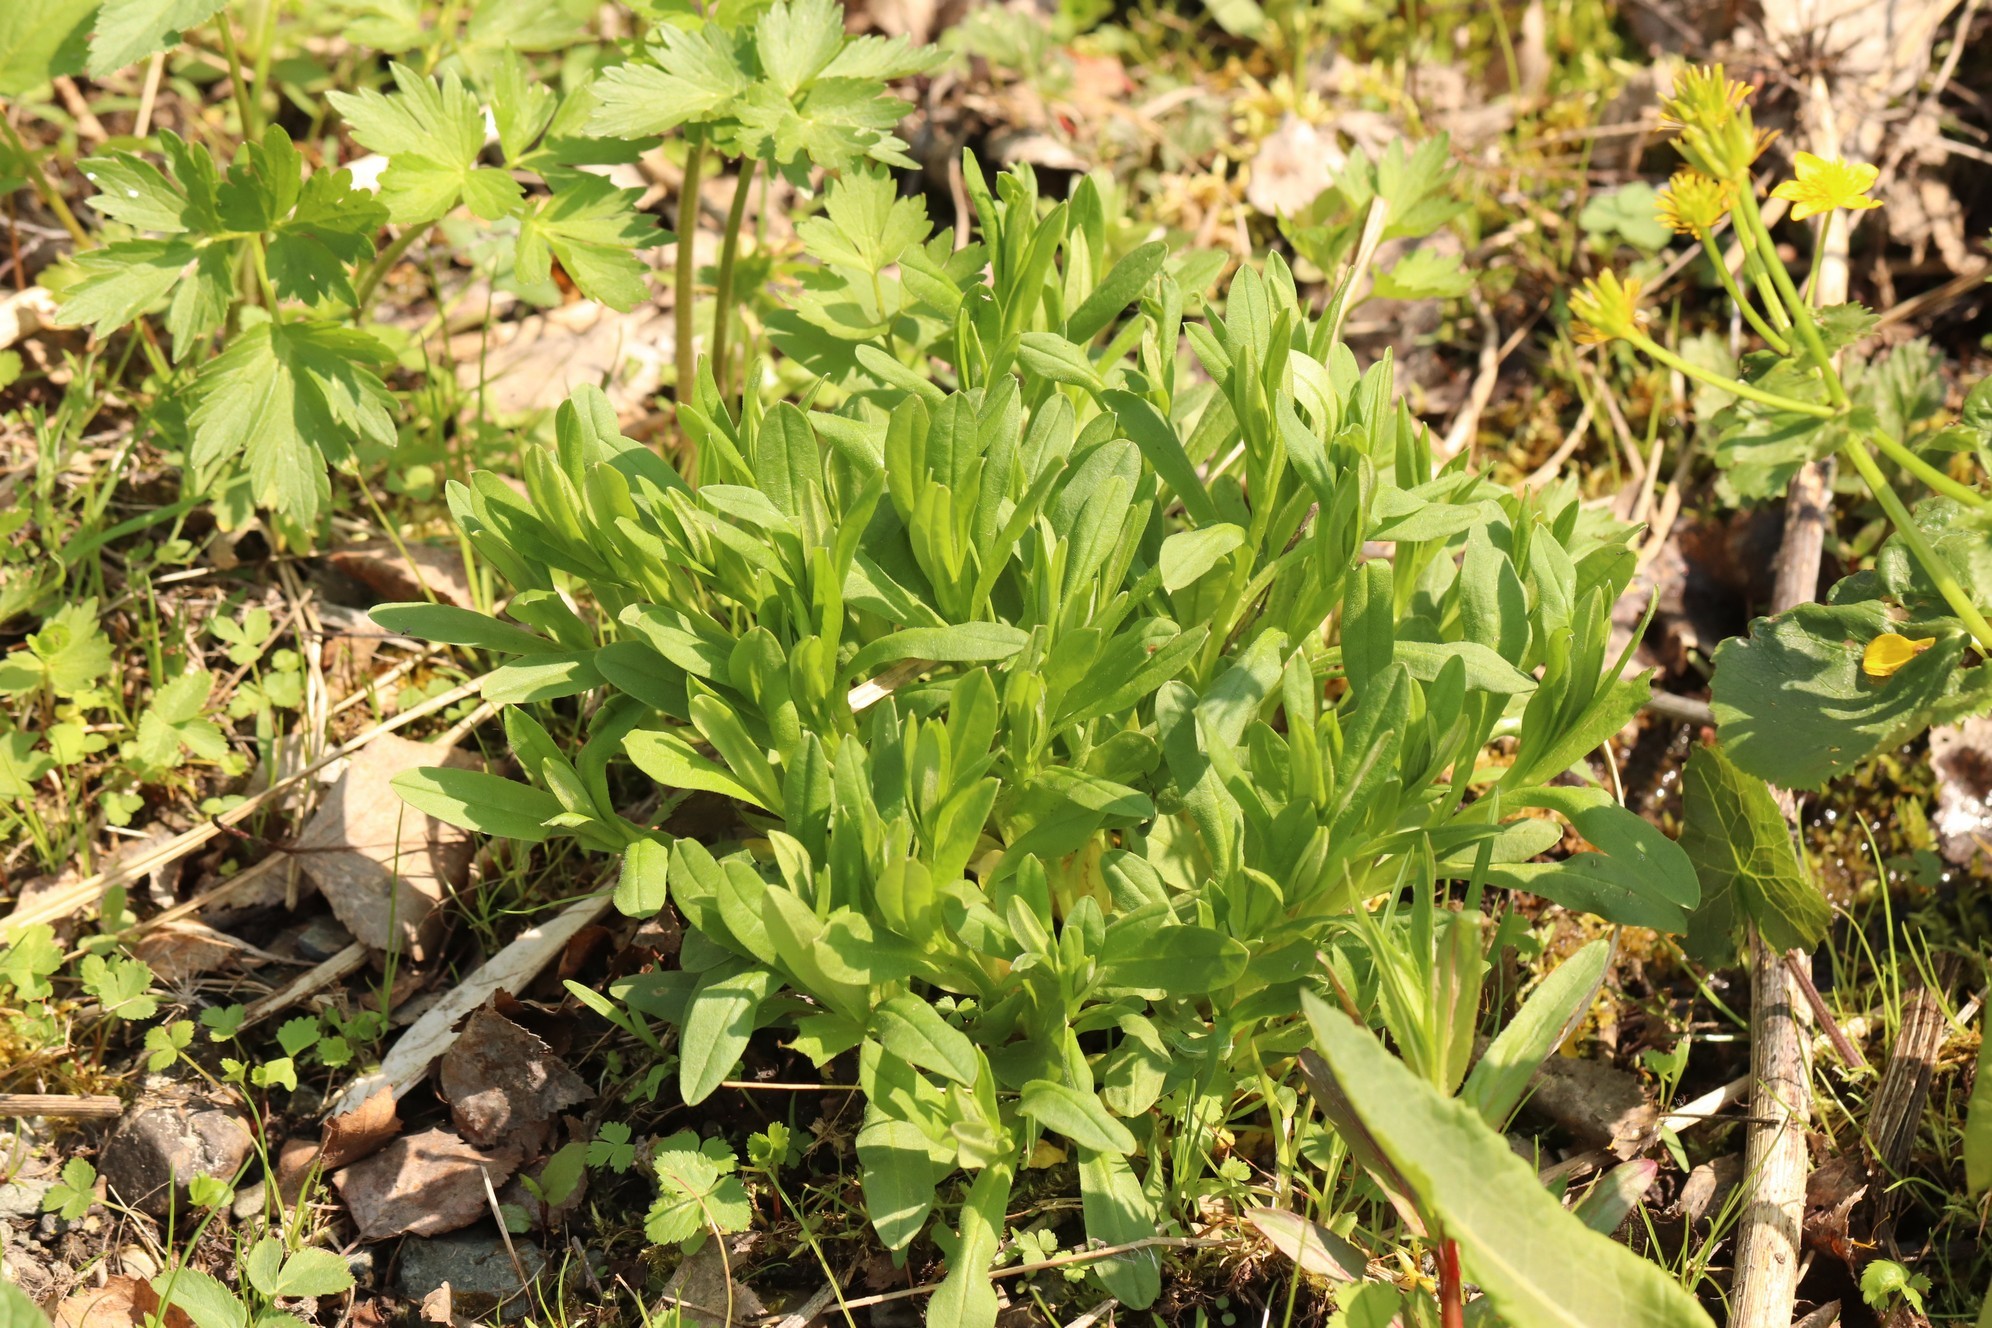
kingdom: Plantae
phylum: Tracheophyta
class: Magnoliopsida
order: Caryophyllales
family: Caryophyllaceae
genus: Silene
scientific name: Silene vulgaris
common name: Bladder campion
